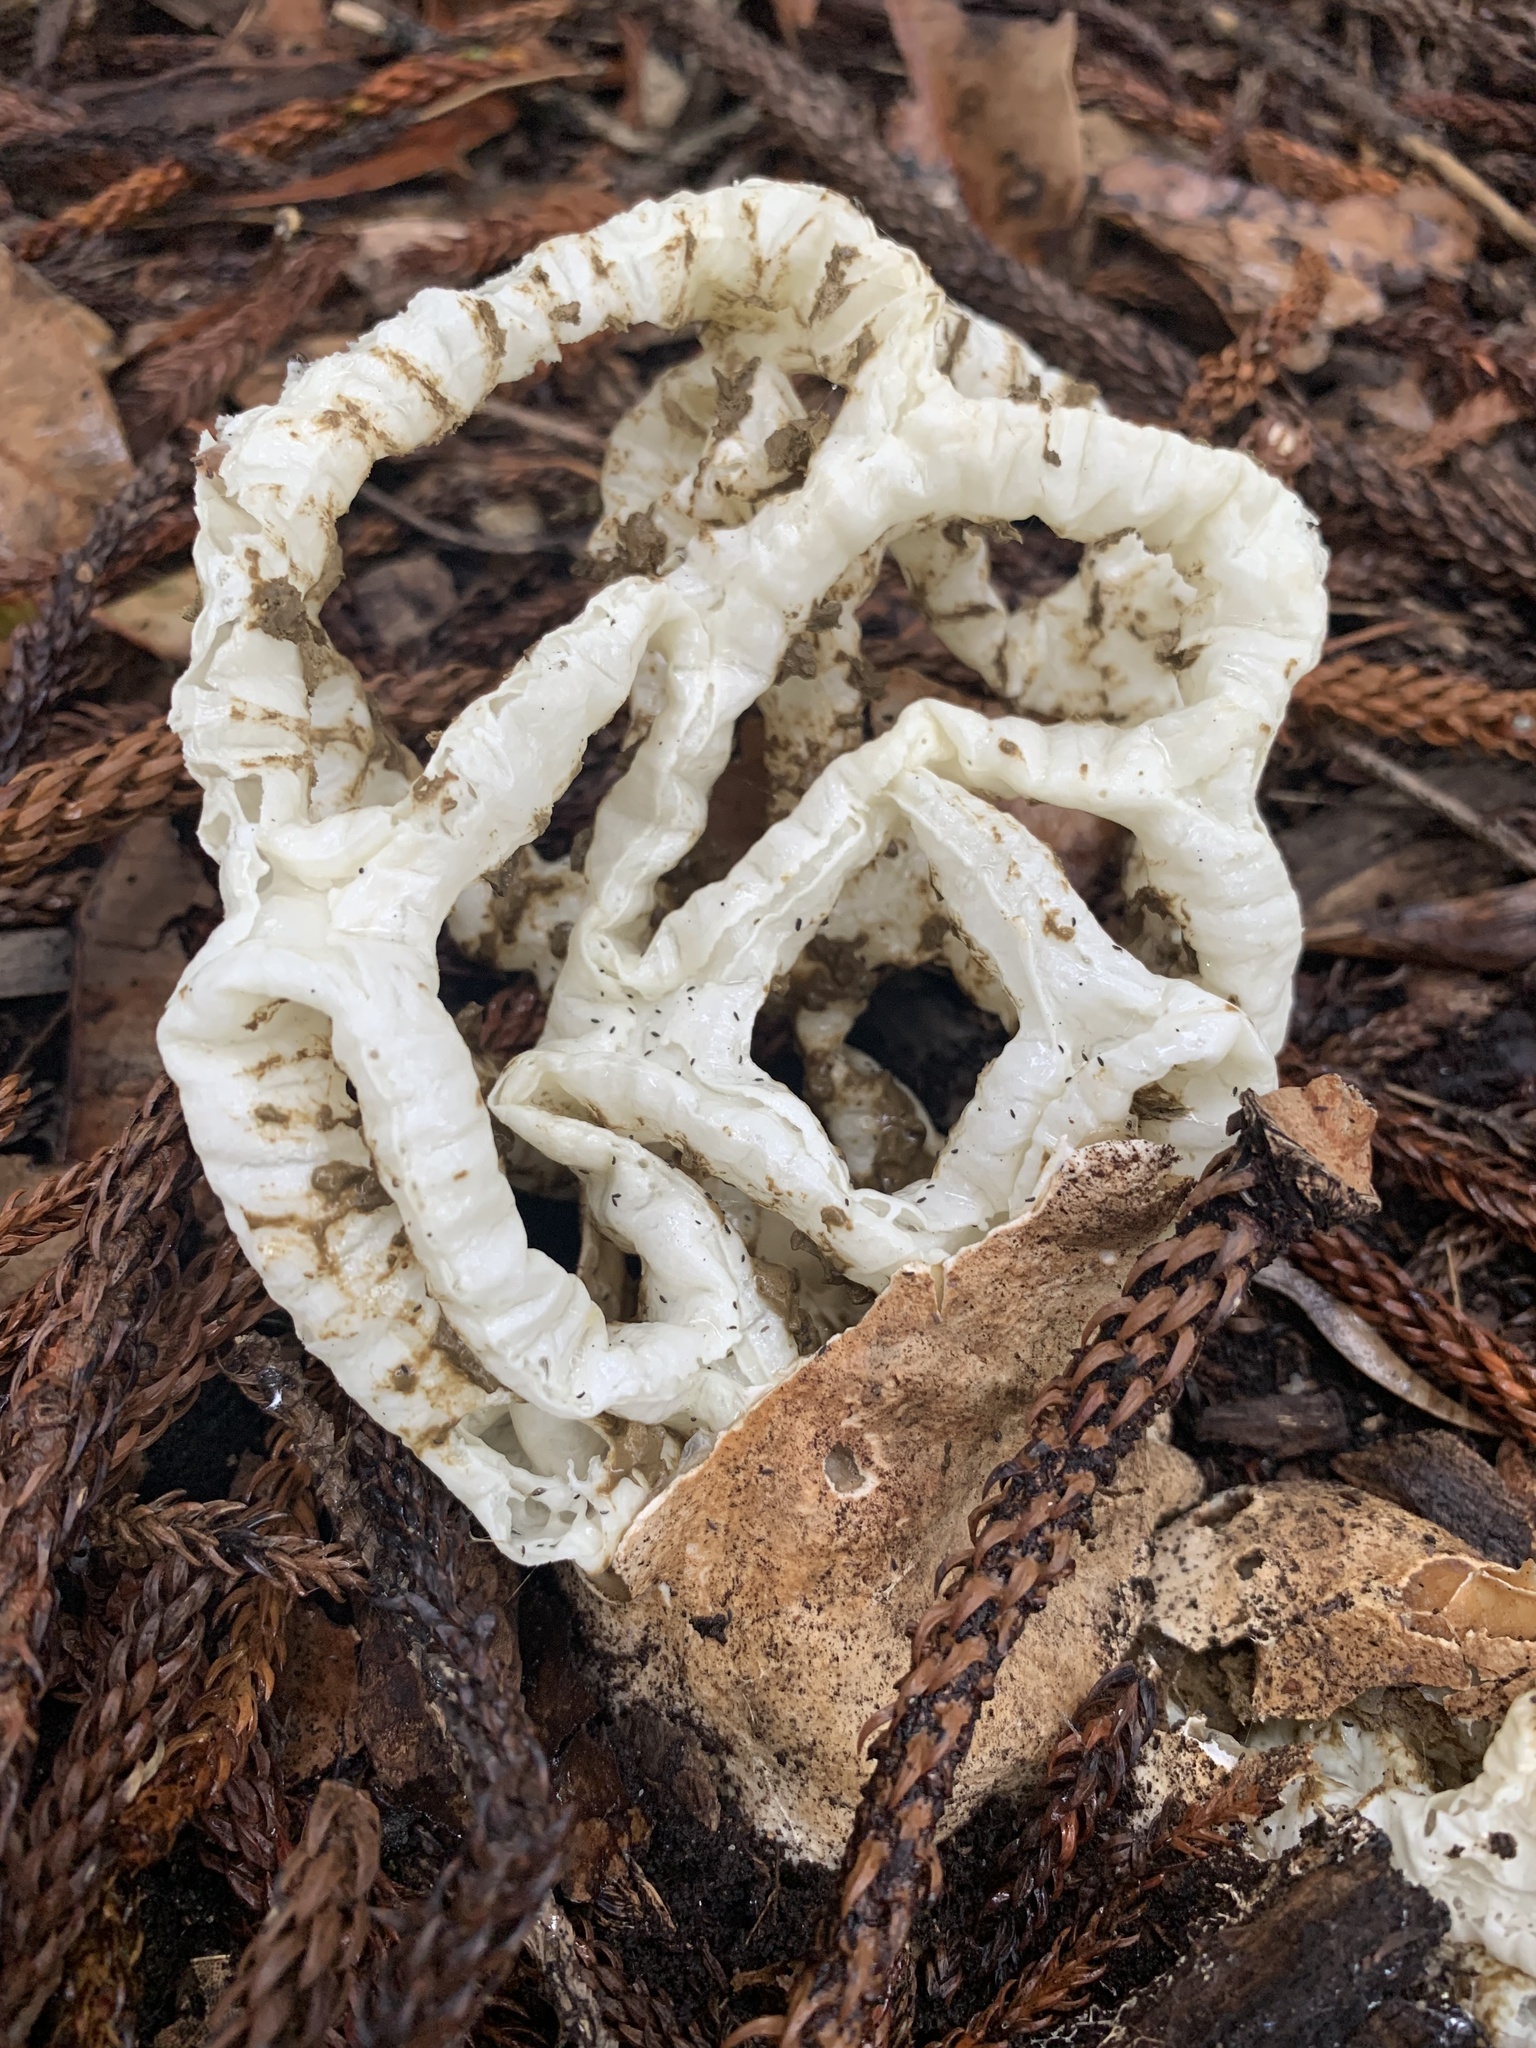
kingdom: Fungi
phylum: Basidiomycota
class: Agaricomycetes
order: Phallales
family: Phallaceae
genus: Ileodictyon
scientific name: Ileodictyon cibarium
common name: Basket fungus
